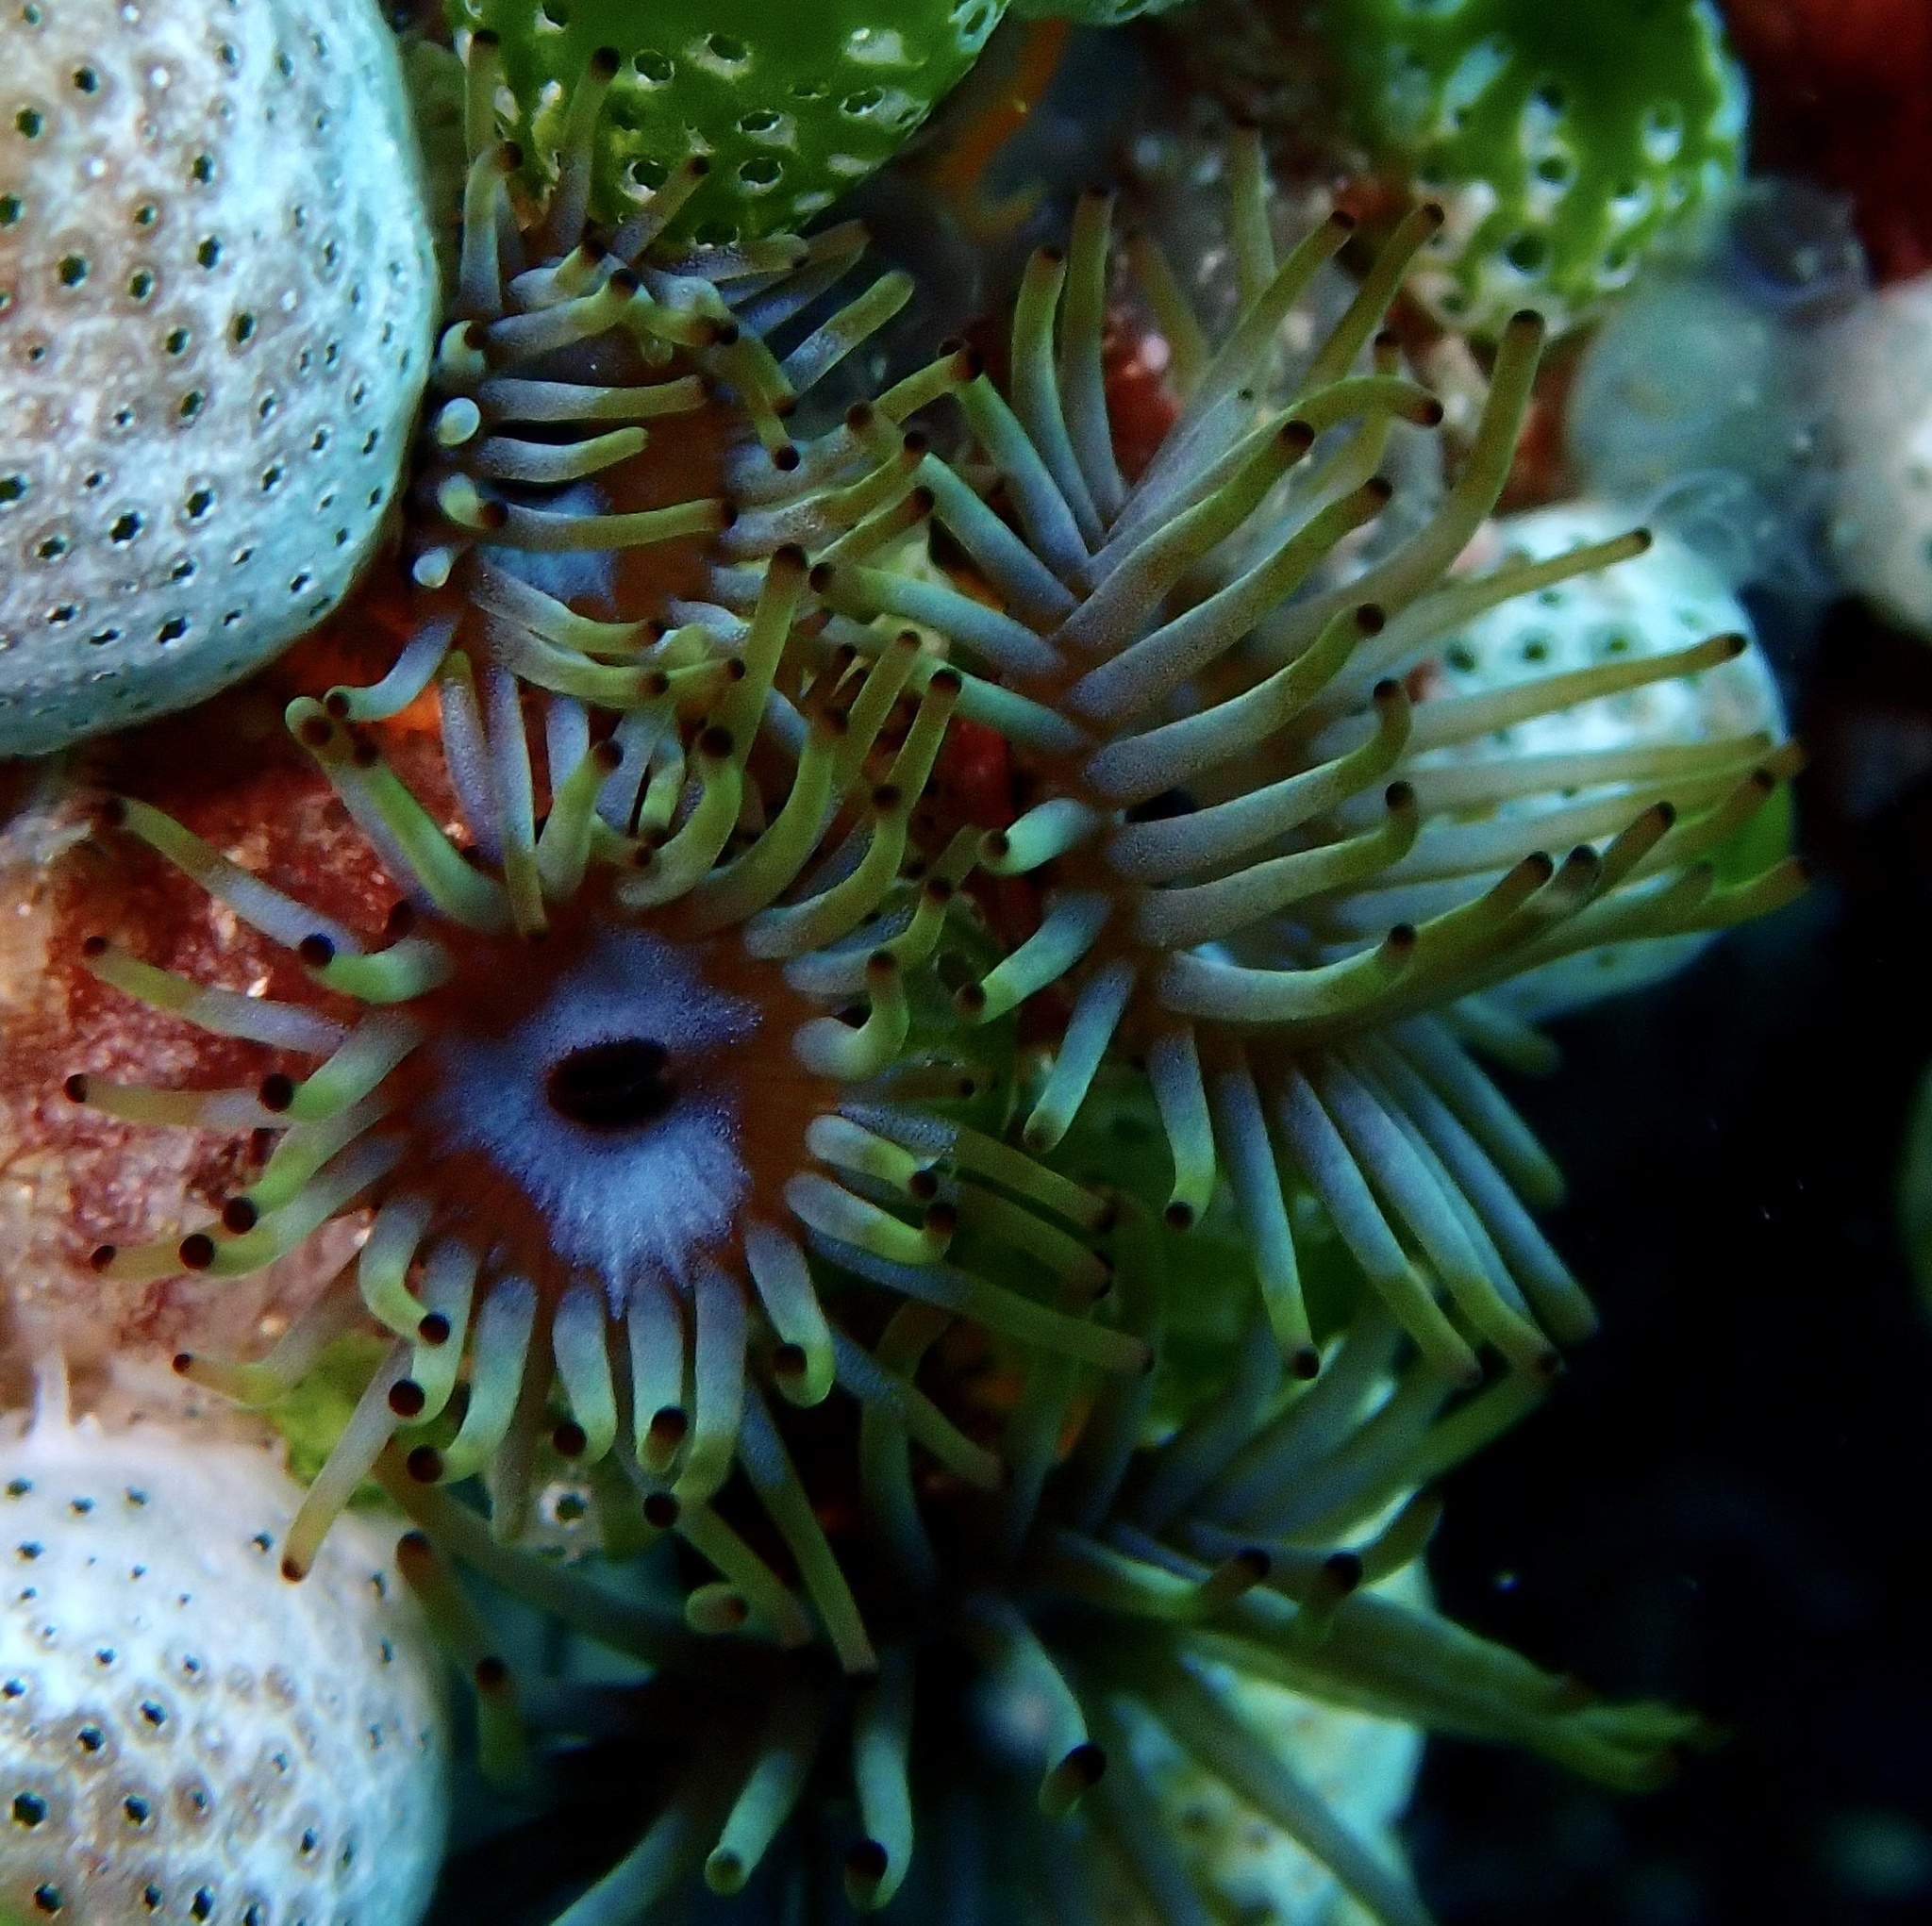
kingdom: Animalia
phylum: Cnidaria
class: Anthozoa
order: Zoantharia
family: Zoanthidae
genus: Acrozoanthus
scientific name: Acrozoanthus australiae
